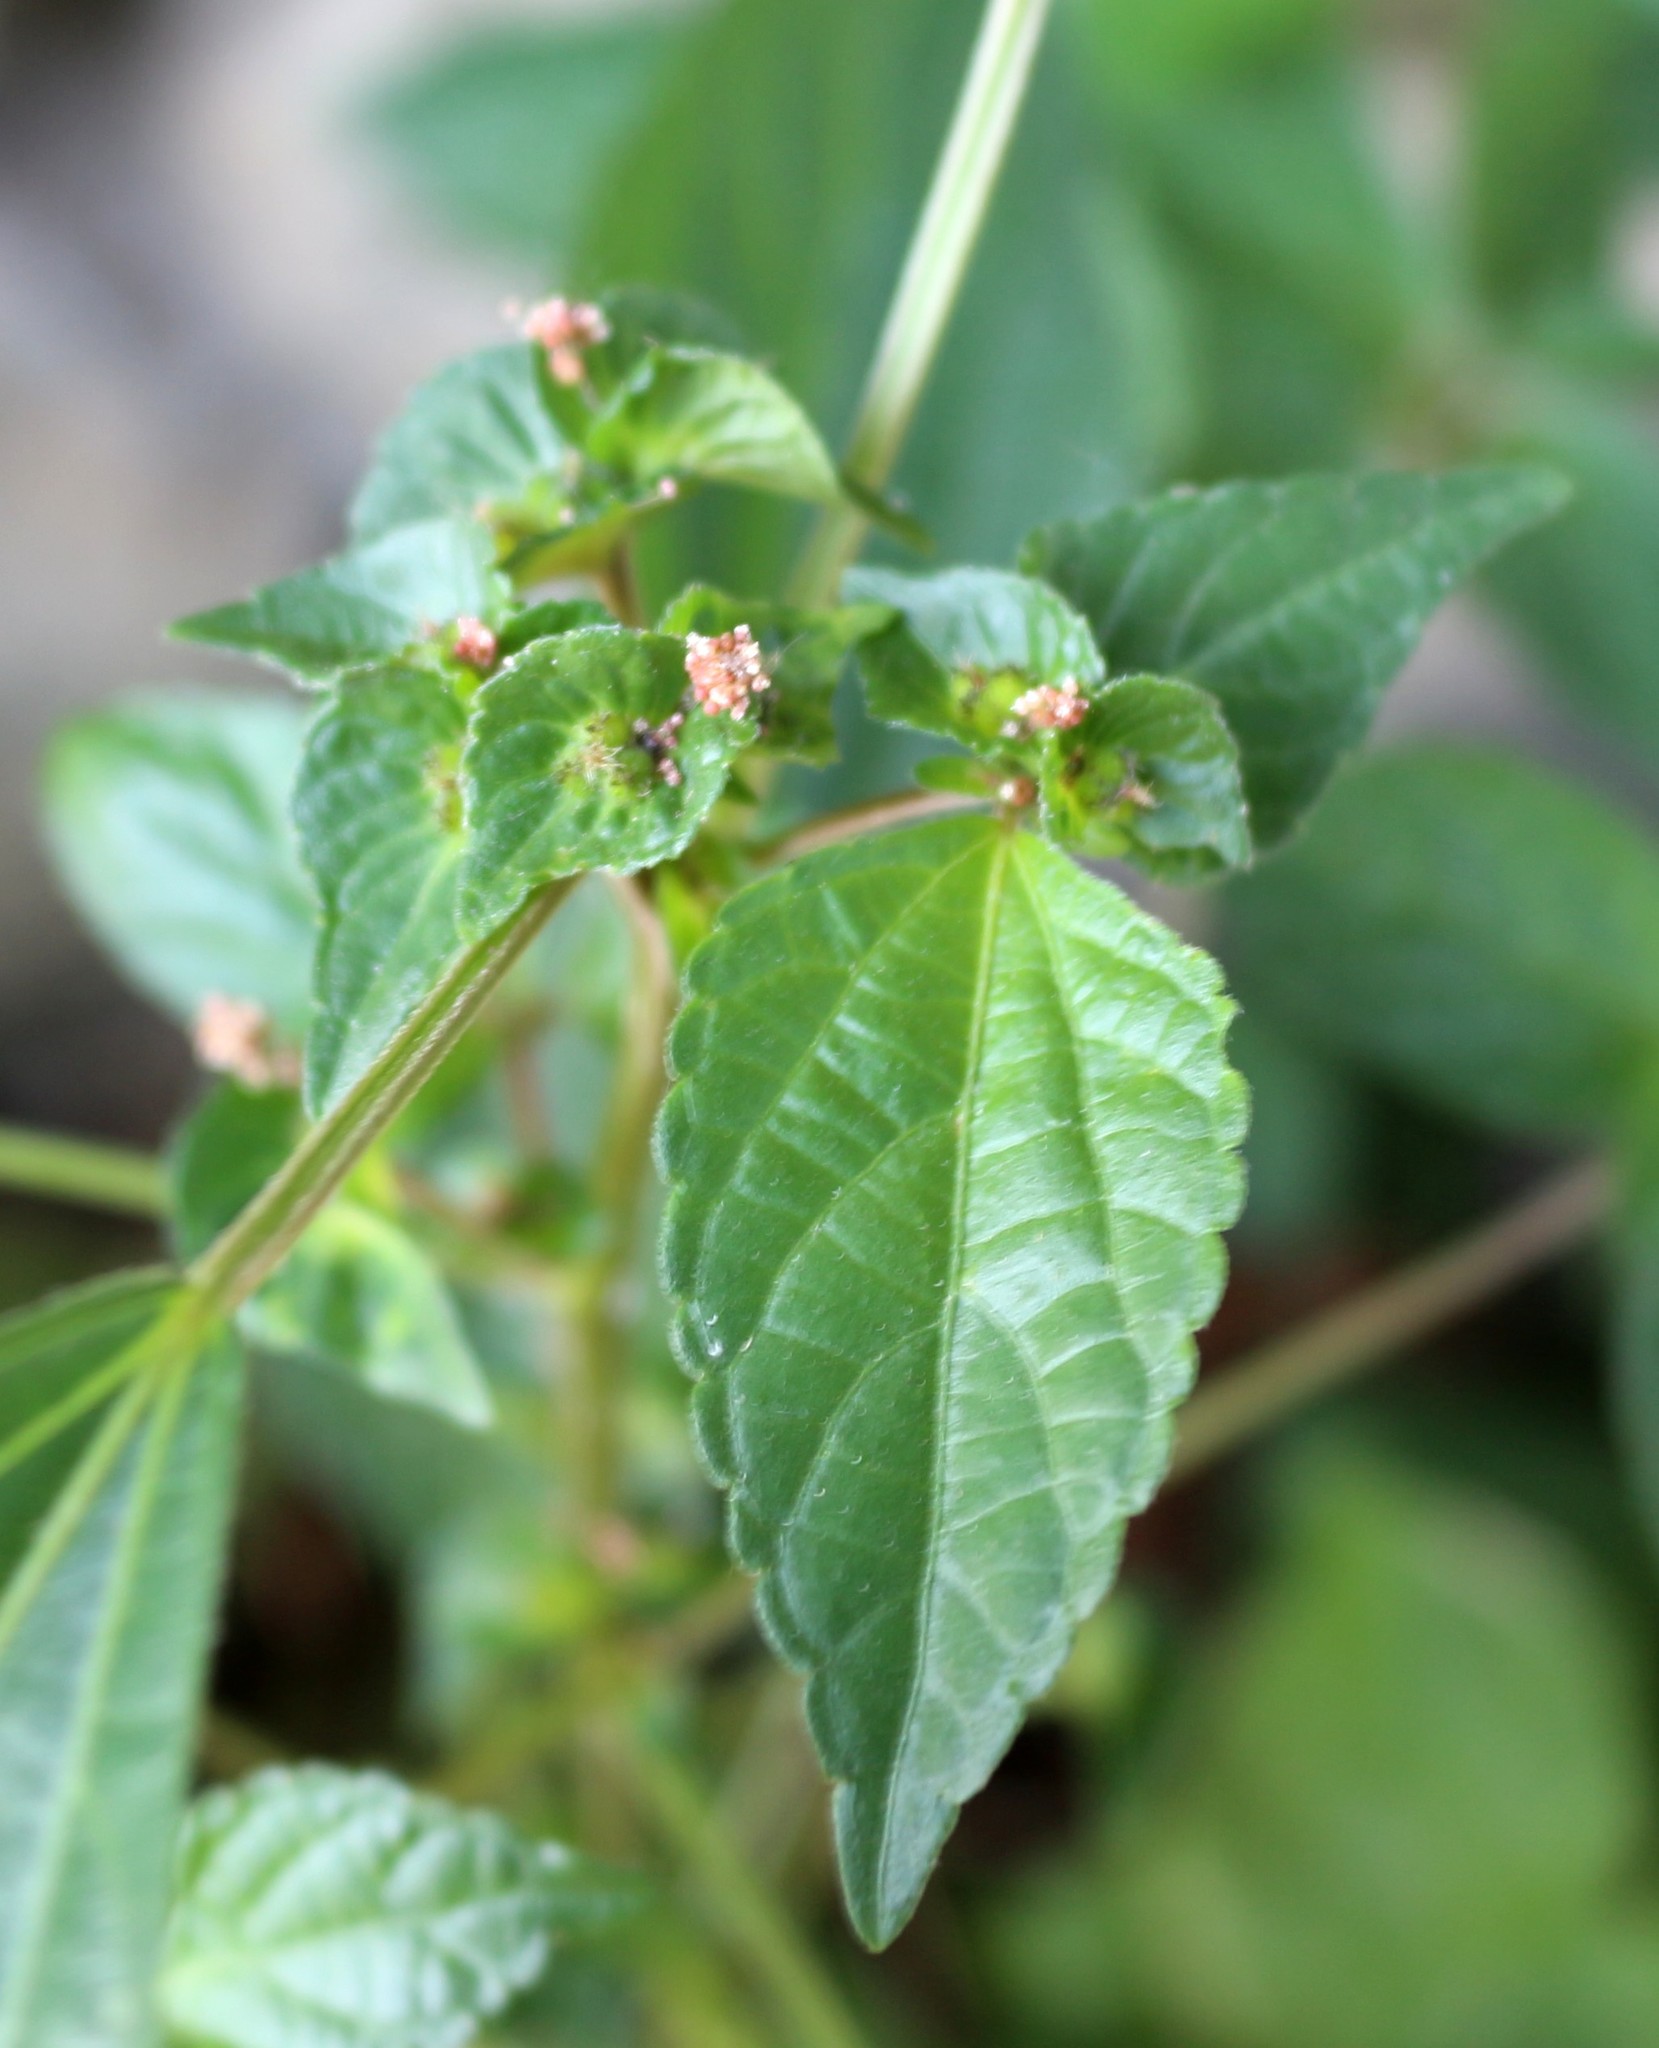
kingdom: Plantae
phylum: Tracheophyta
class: Magnoliopsida
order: Malpighiales
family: Euphorbiaceae
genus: Acalypha
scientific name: Acalypha australis
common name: Asian copperleaf
